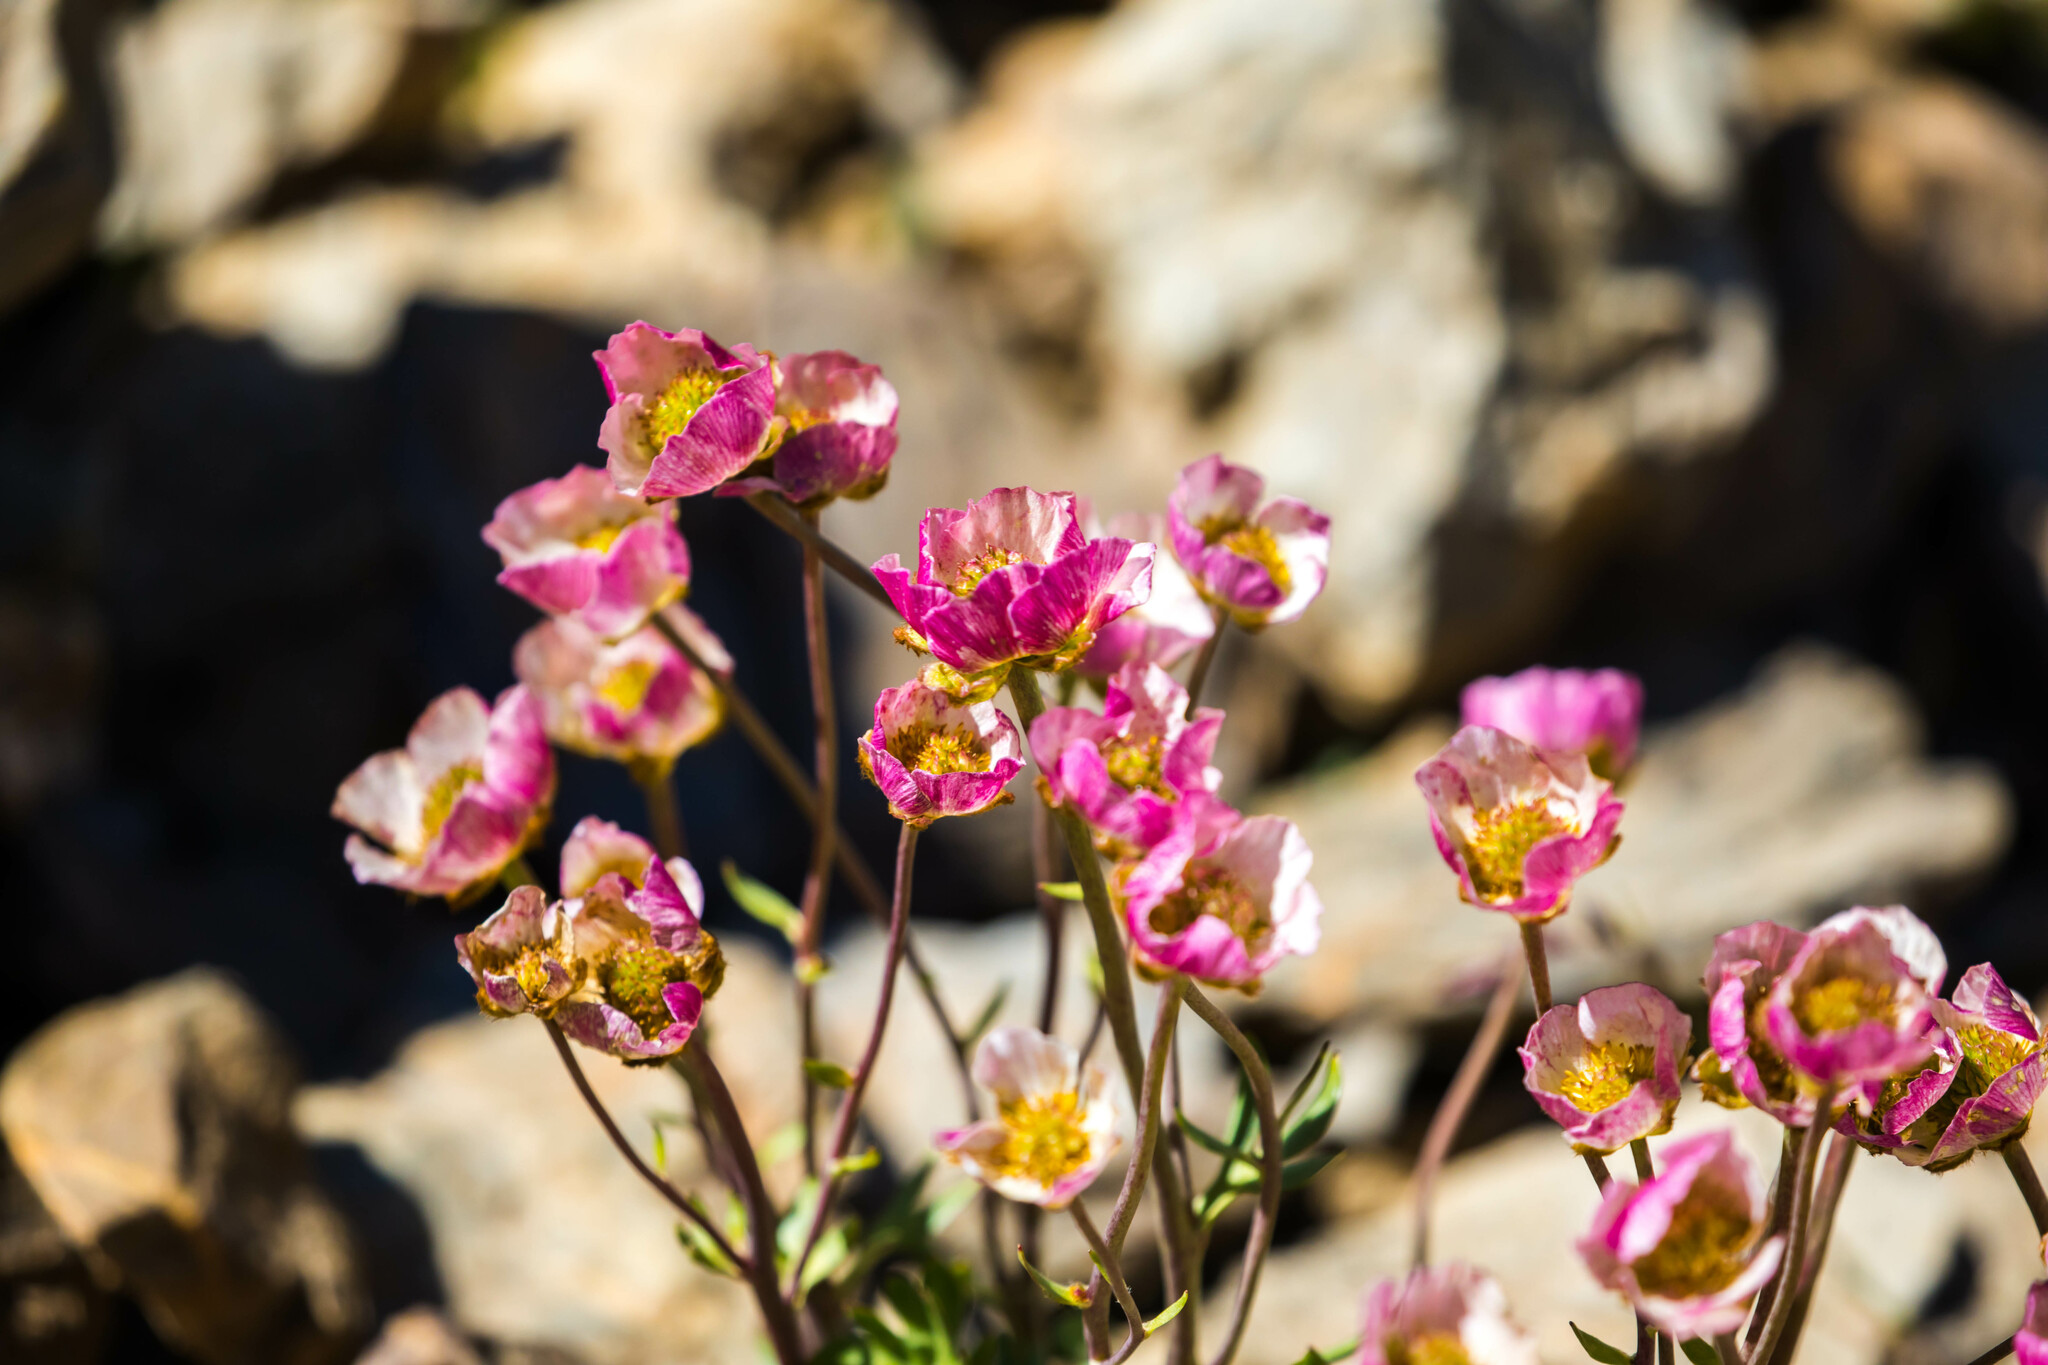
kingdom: Plantae
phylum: Tracheophyta
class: Magnoliopsida
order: Ranunculales
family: Ranunculaceae
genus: Ranunculus
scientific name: Ranunculus glacialis
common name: Glacier buttercup
